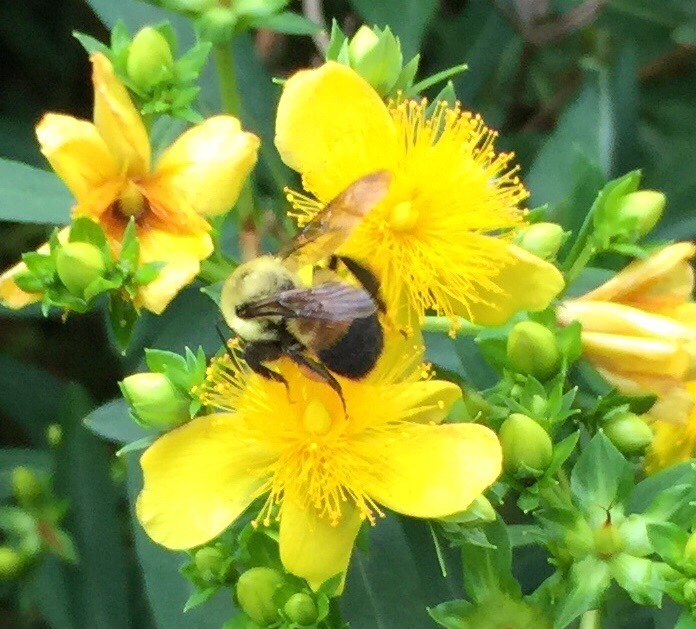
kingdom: Animalia
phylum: Arthropoda
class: Insecta
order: Hymenoptera
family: Apidae
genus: Bombus
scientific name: Bombus griseocollis
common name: Brown-belted bumble bee
